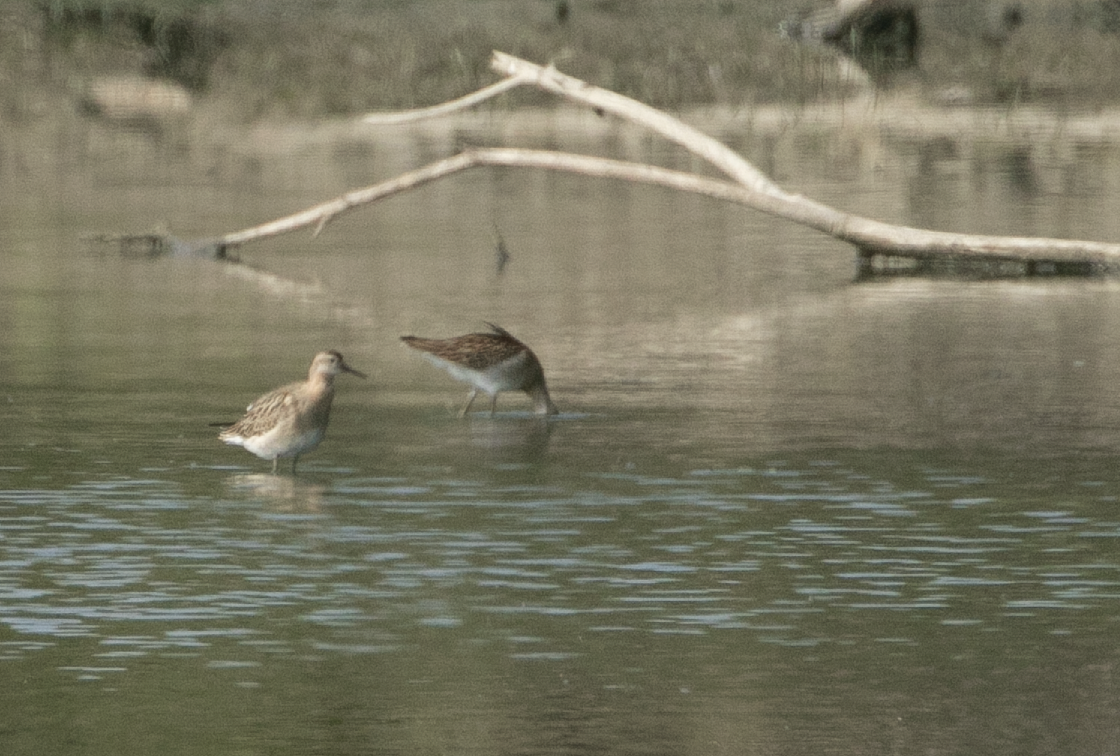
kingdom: Animalia
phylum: Chordata
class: Aves
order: Charadriiformes
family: Scolopacidae
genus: Calidris
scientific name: Calidris pugnax
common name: Ruff
